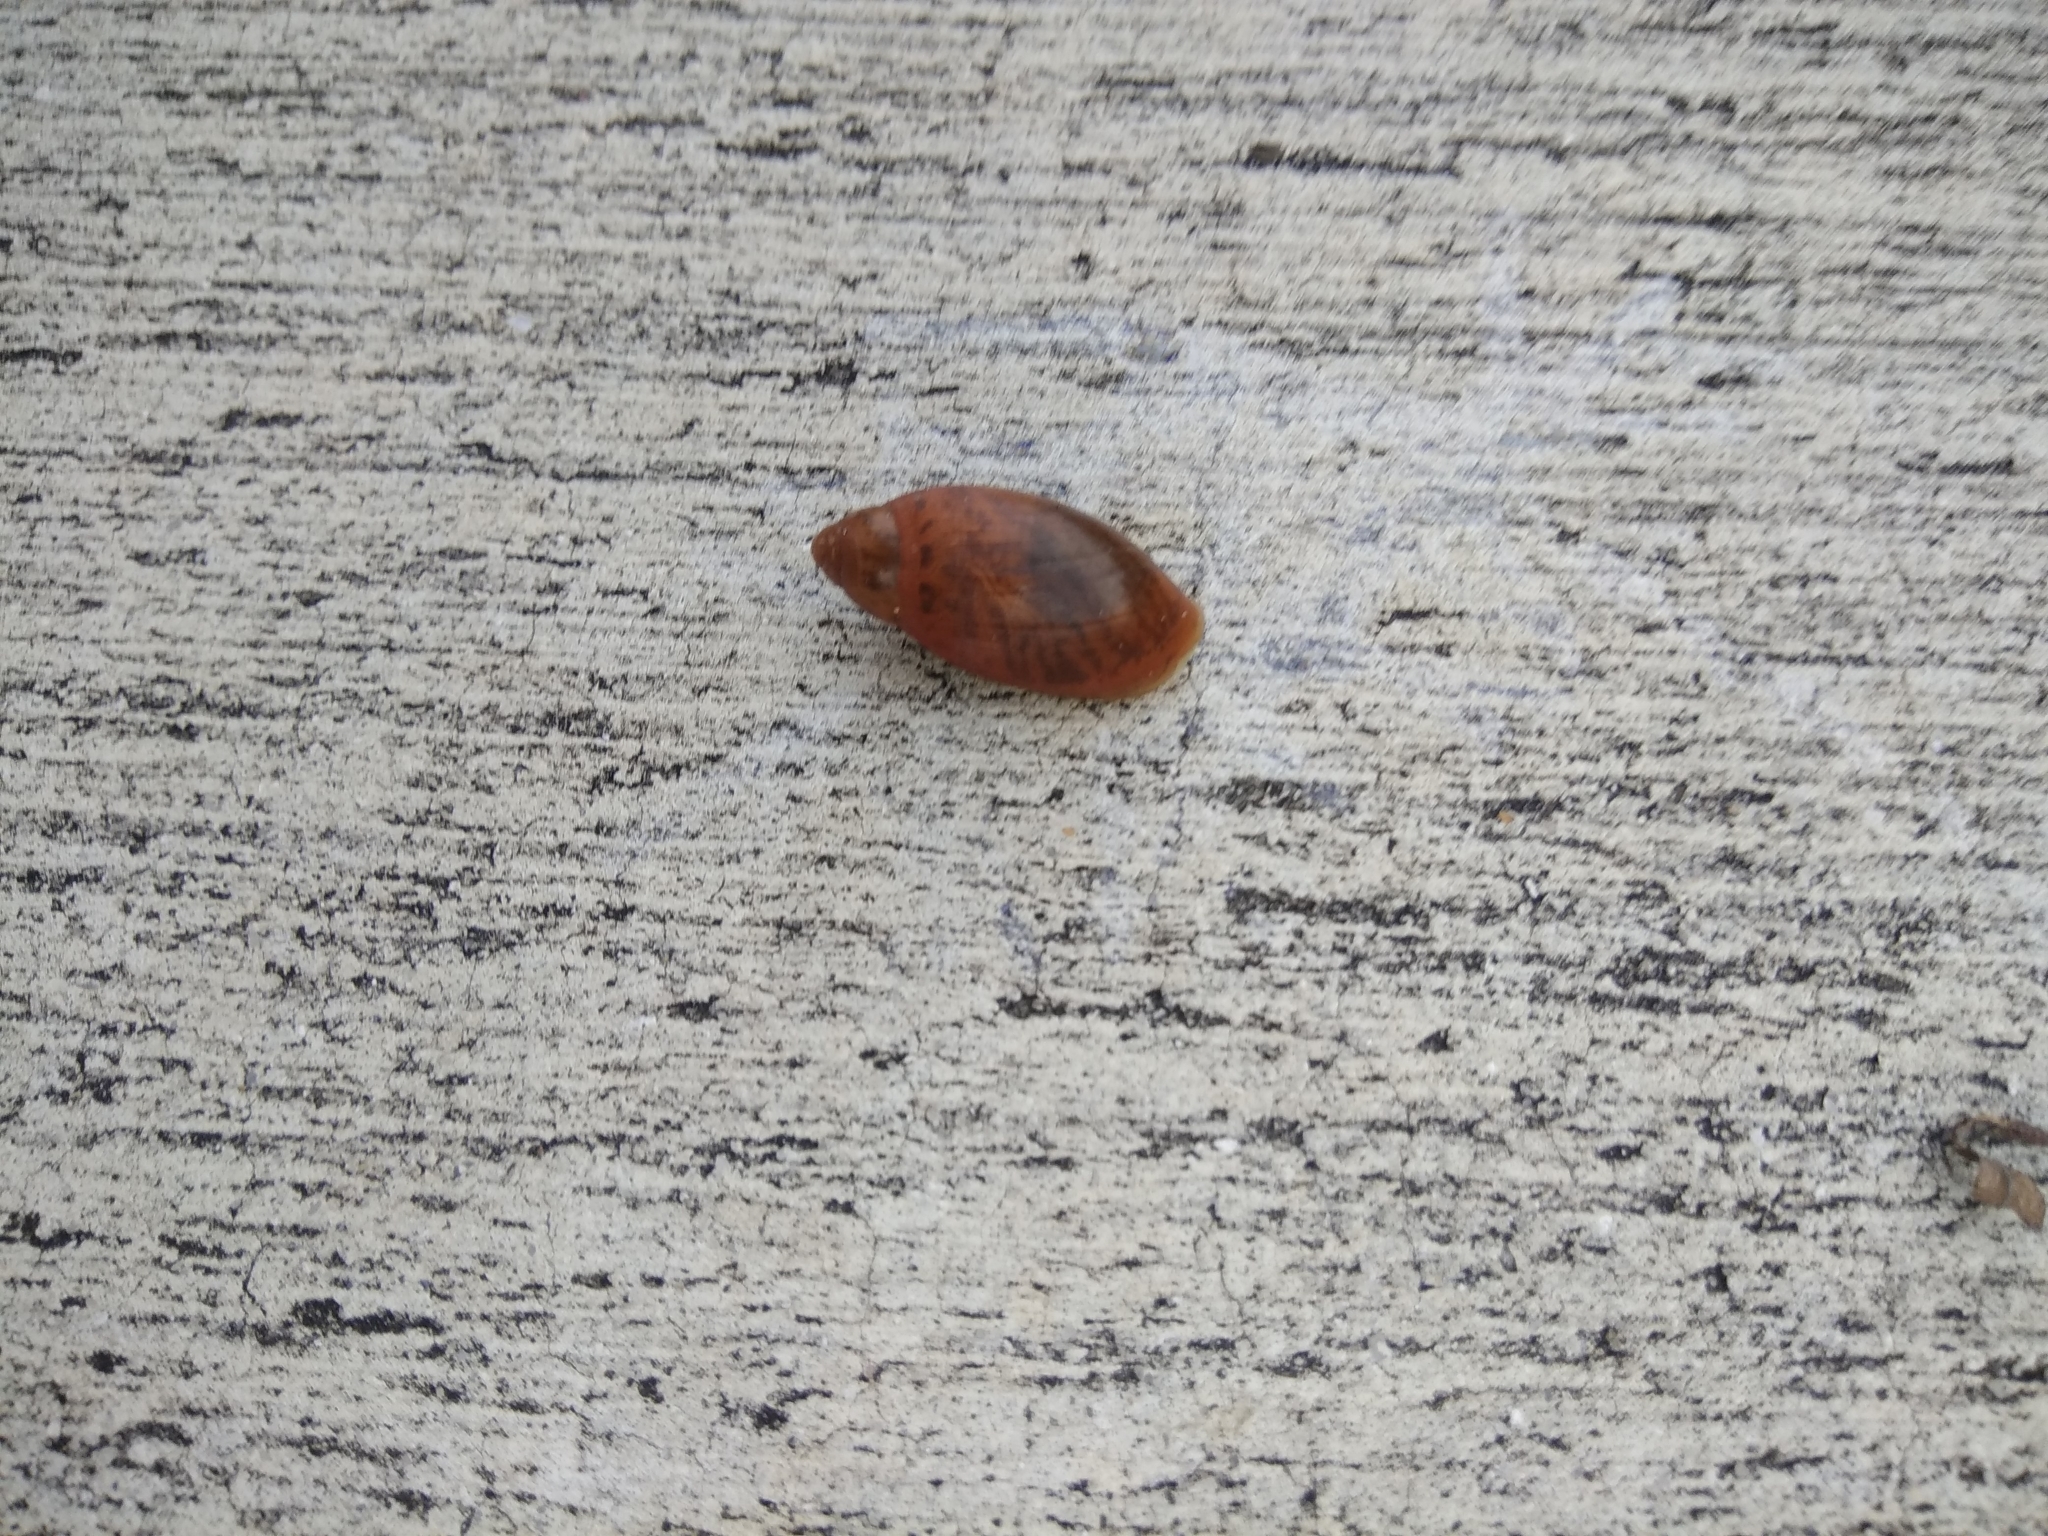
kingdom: Animalia
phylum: Mollusca
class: Gastropoda
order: Stylommatophora
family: Spiraxidae
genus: Euglandina
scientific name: Euglandina rosea
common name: Rosy wolfsnail
